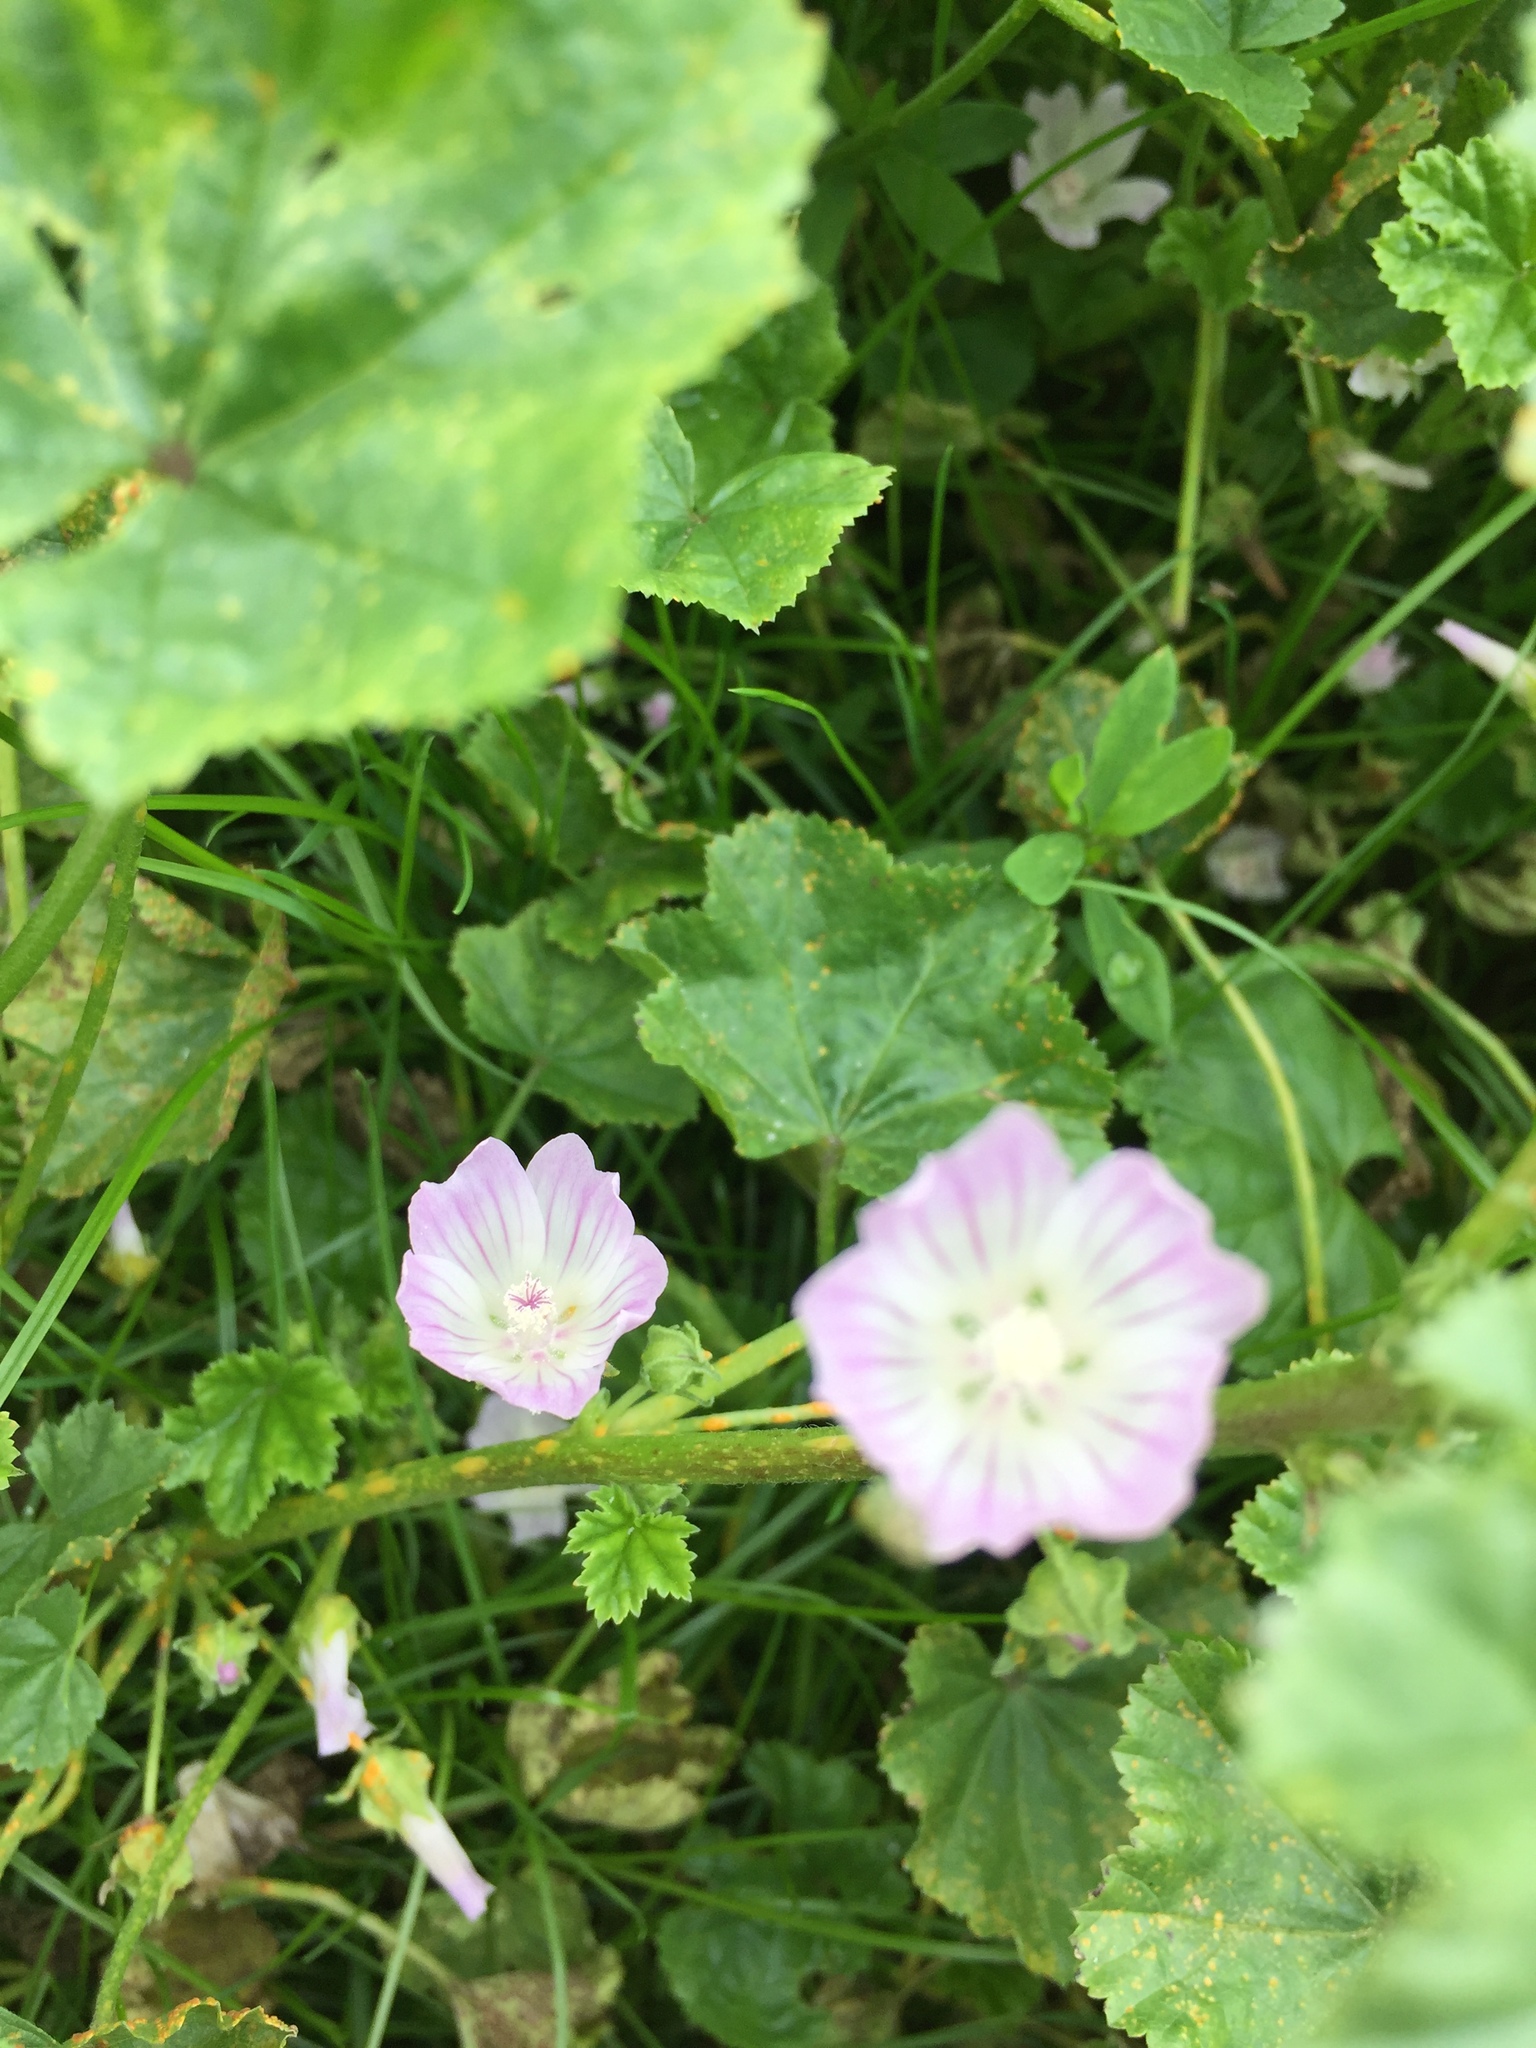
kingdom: Plantae
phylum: Tracheophyta
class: Magnoliopsida
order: Malvales
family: Malvaceae
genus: Malva
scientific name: Malva neglecta
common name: Common mallow
